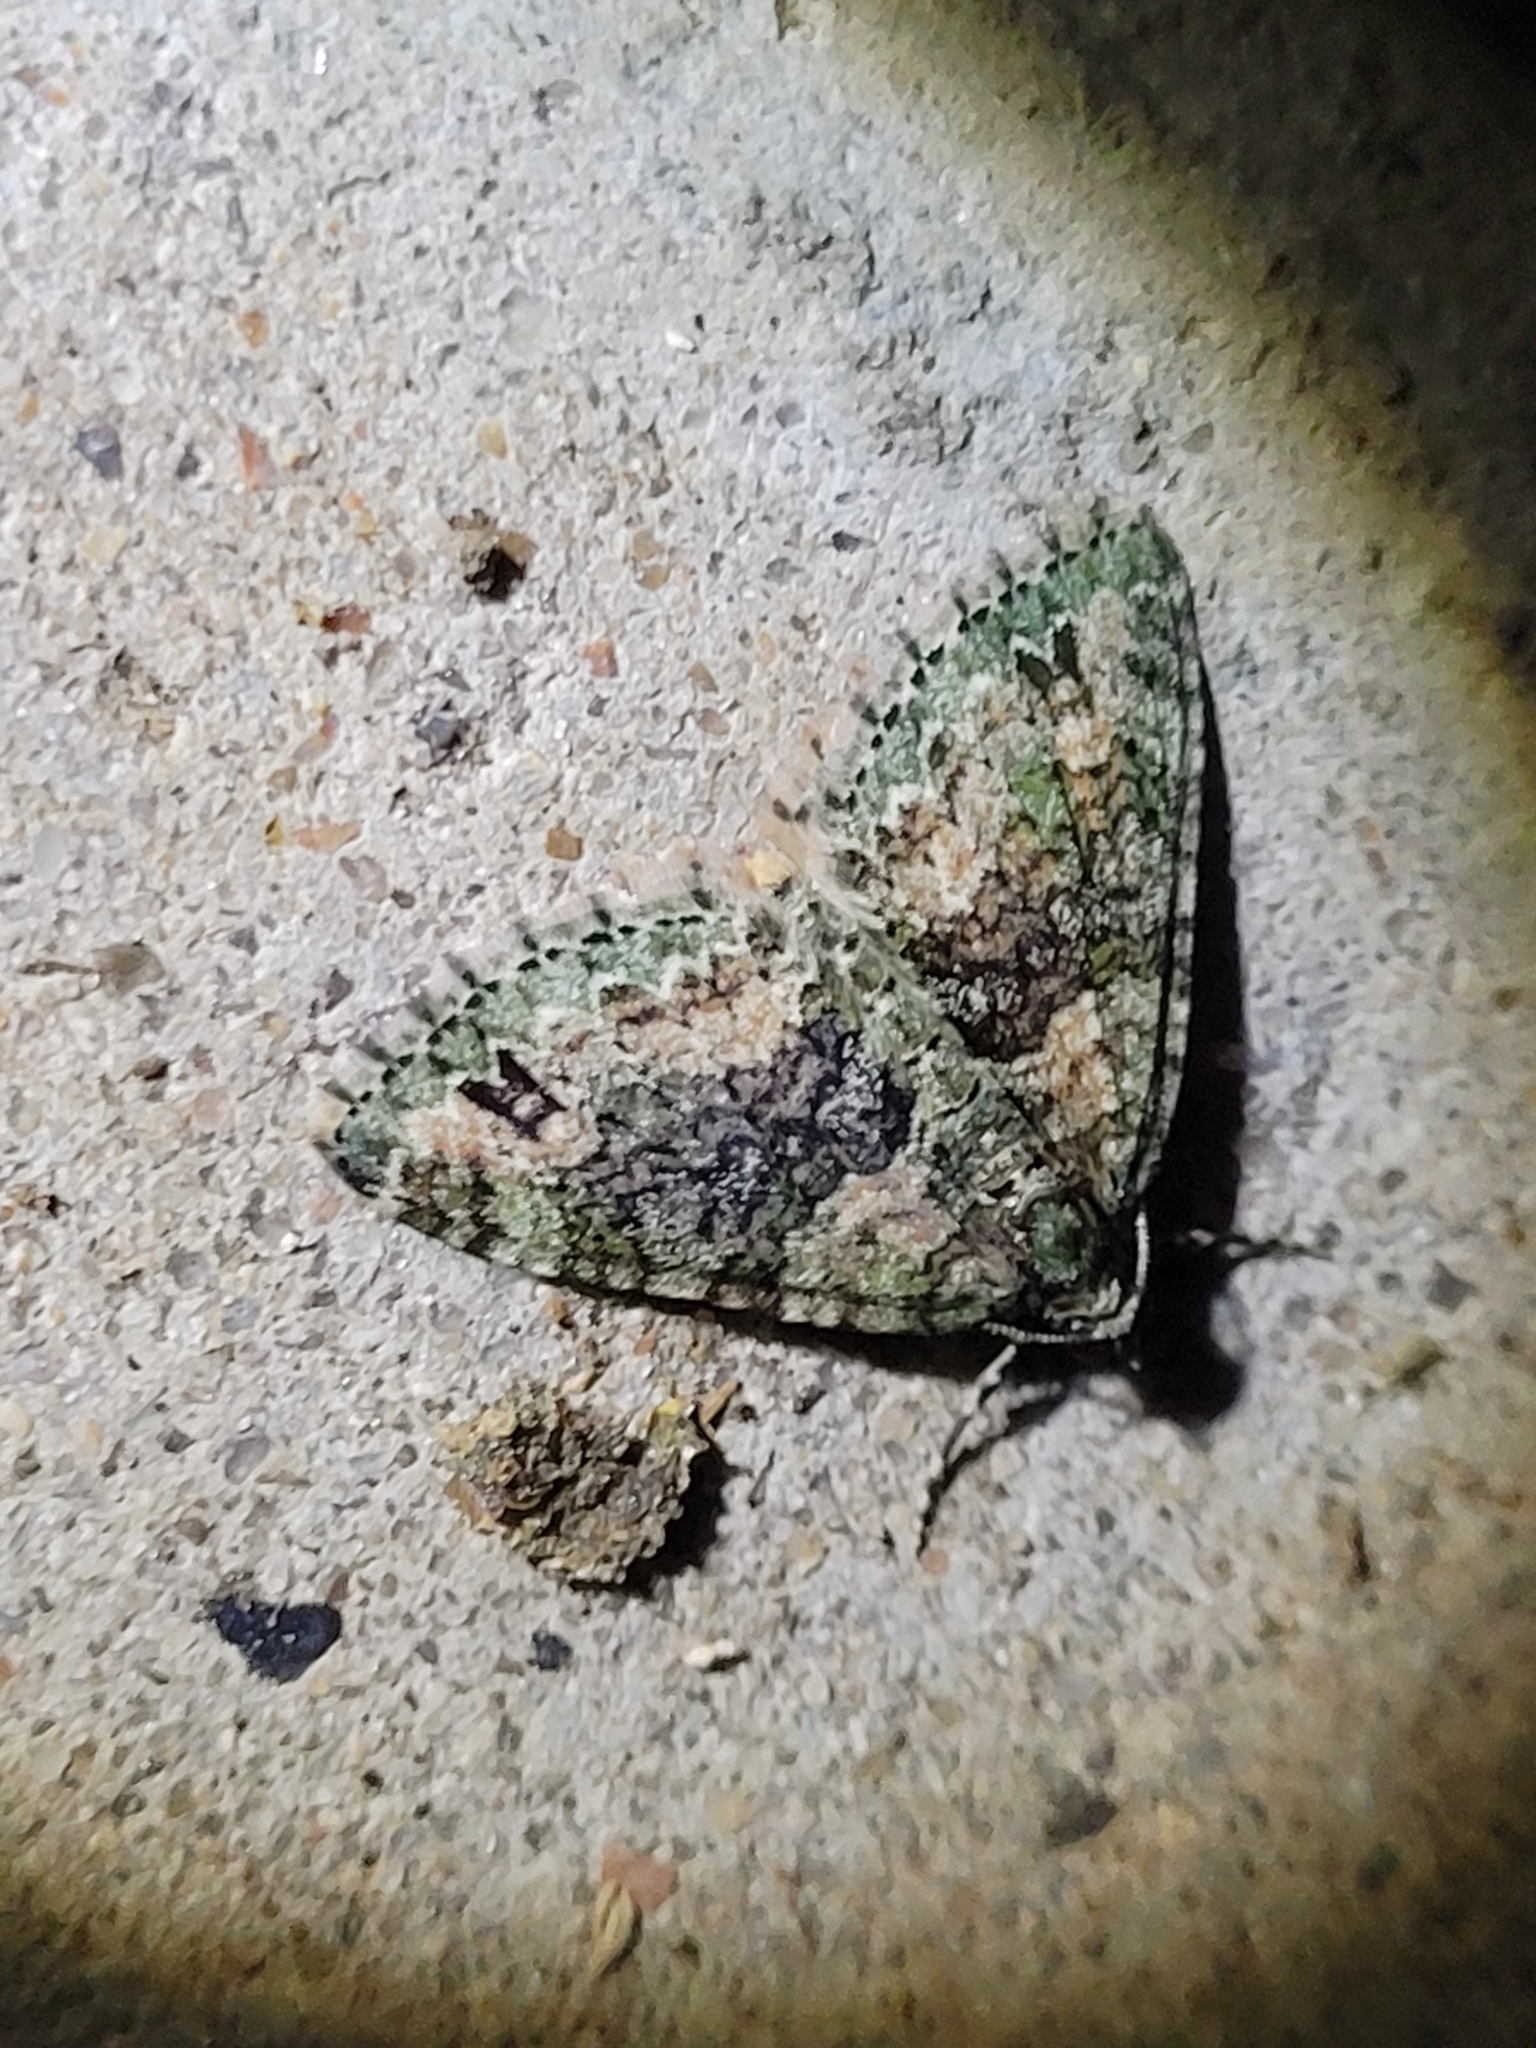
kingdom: Animalia
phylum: Arthropoda
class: Insecta
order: Lepidoptera
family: Geometridae
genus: Hammaptera
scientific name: Hammaptera parinotata
